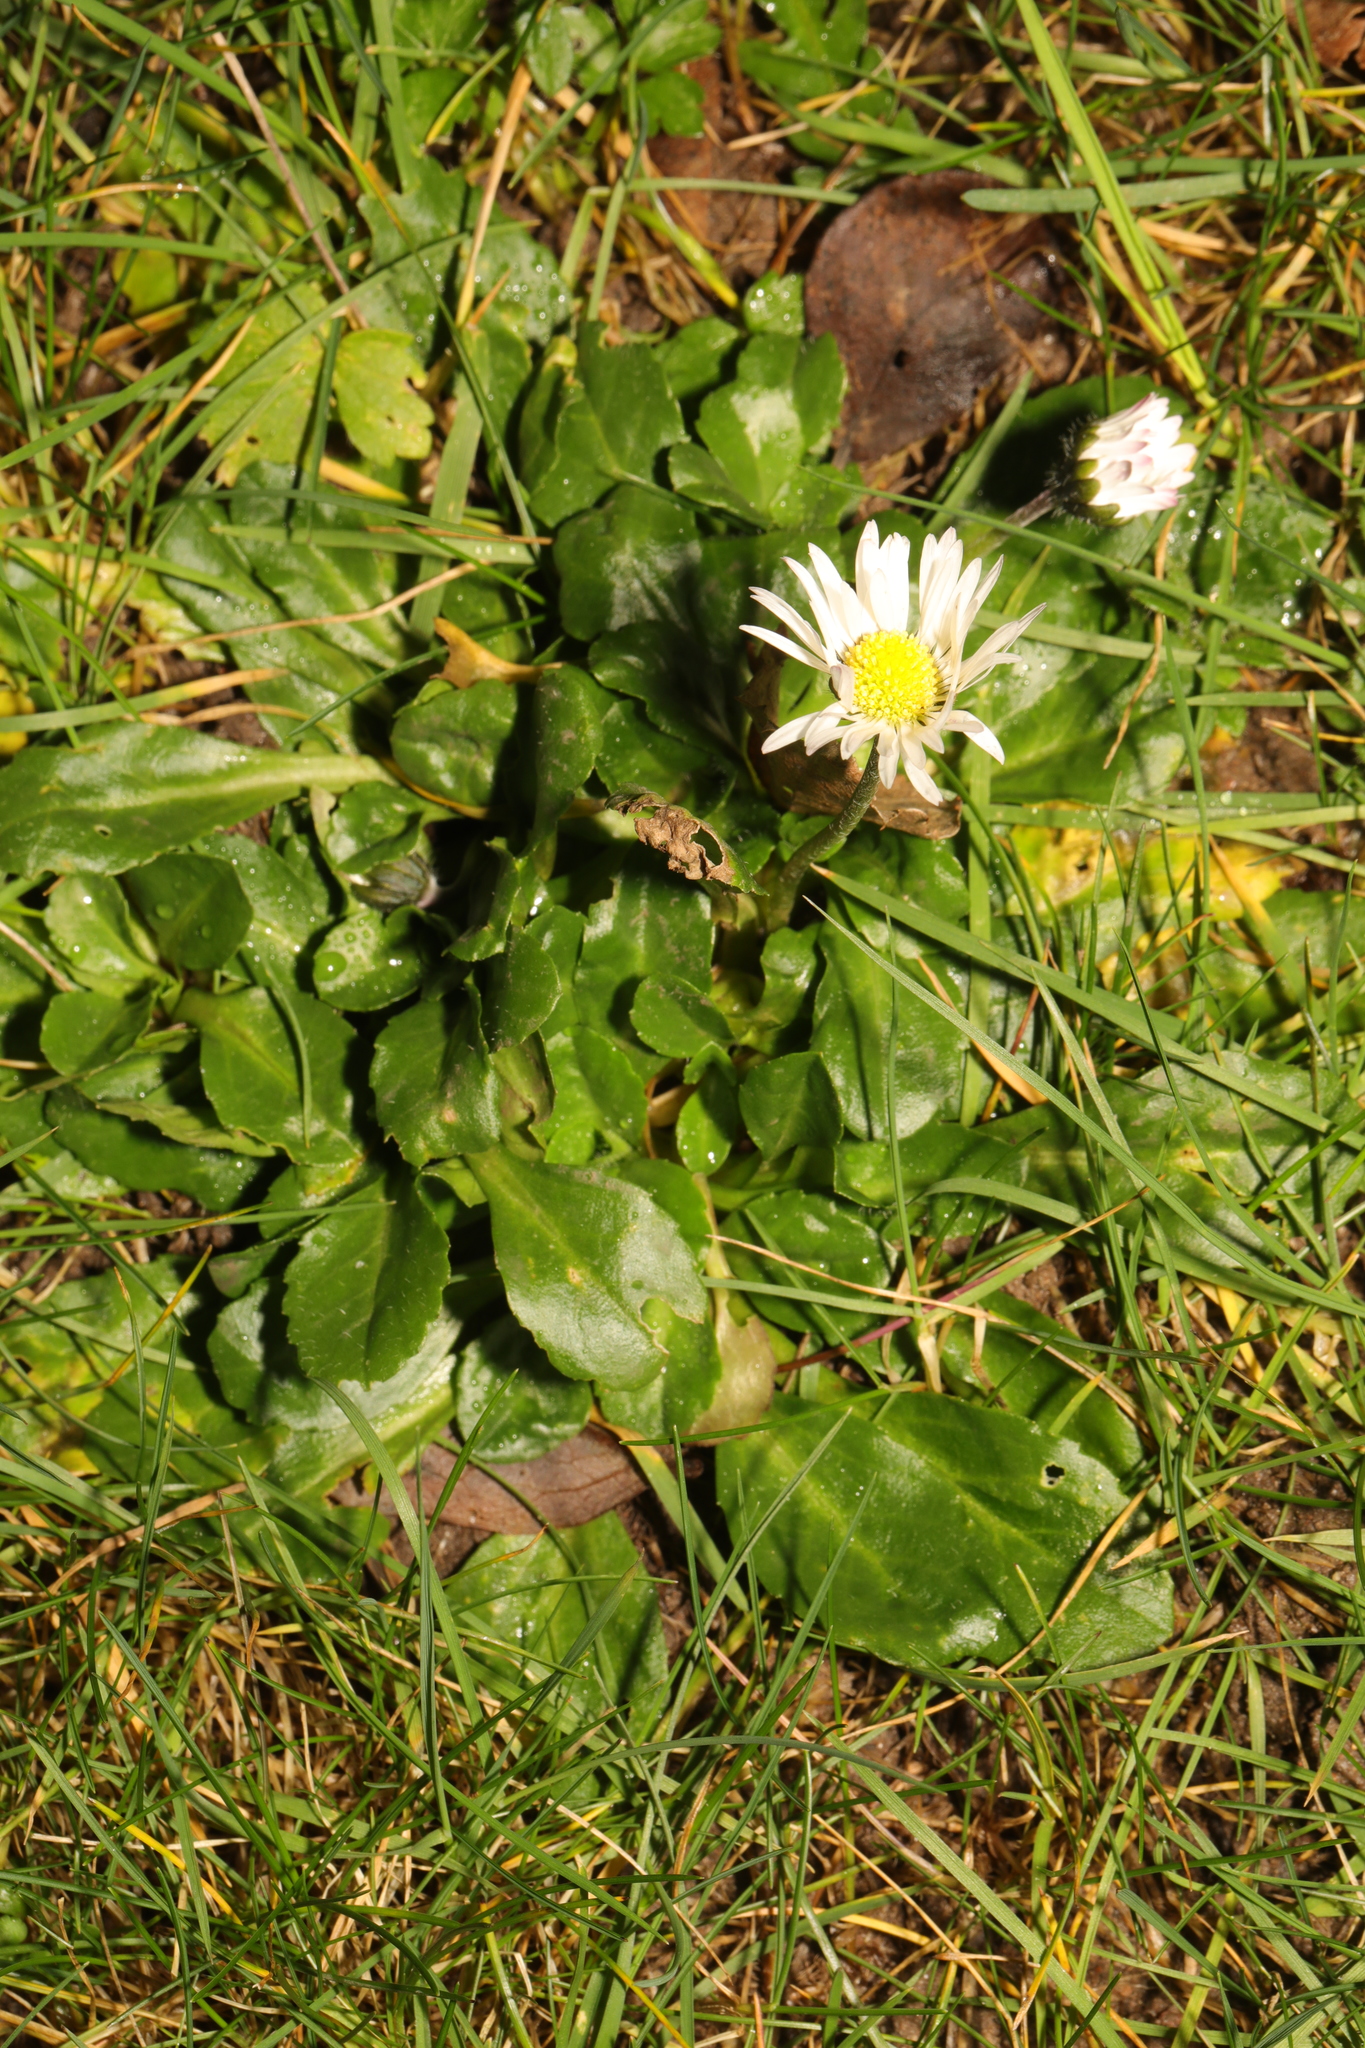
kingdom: Plantae
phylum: Tracheophyta
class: Magnoliopsida
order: Asterales
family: Asteraceae
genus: Bellis
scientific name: Bellis perennis
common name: Lawndaisy
